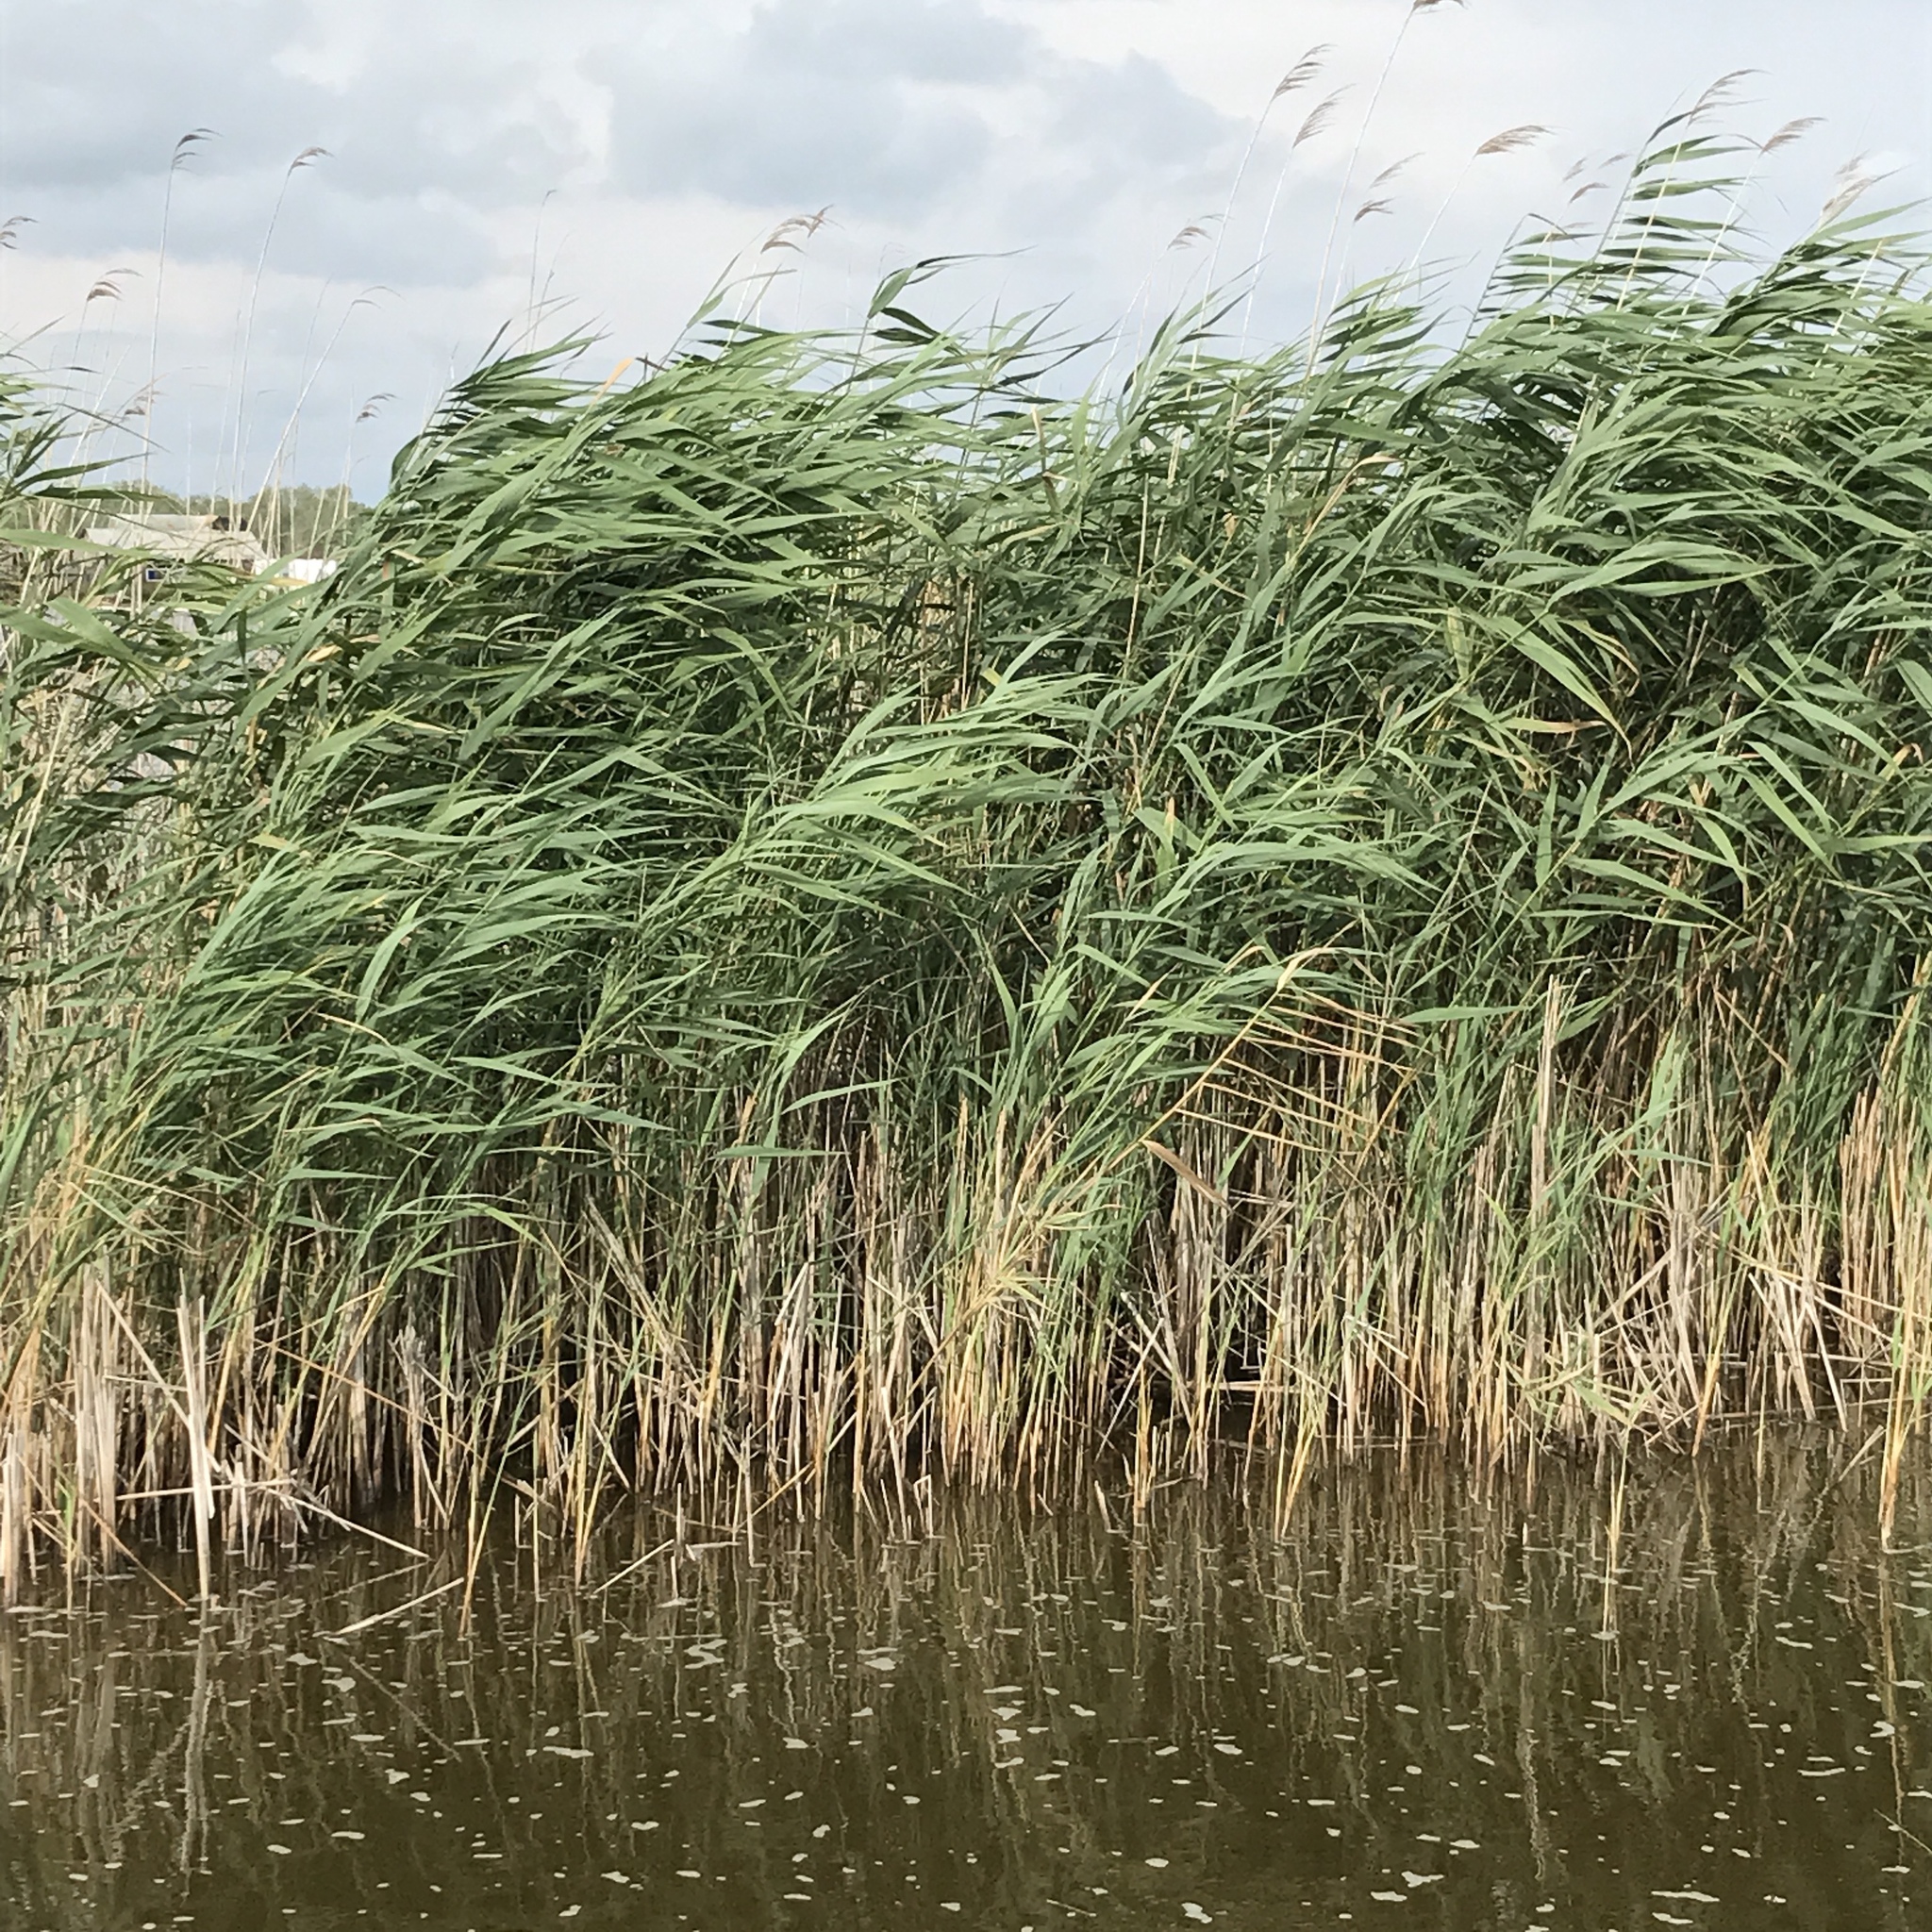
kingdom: Plantae
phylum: Tracheophyta
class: Liliopsida
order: Poales
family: Poaceae
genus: Phragmites
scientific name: Phragmites australis
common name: Common reed
